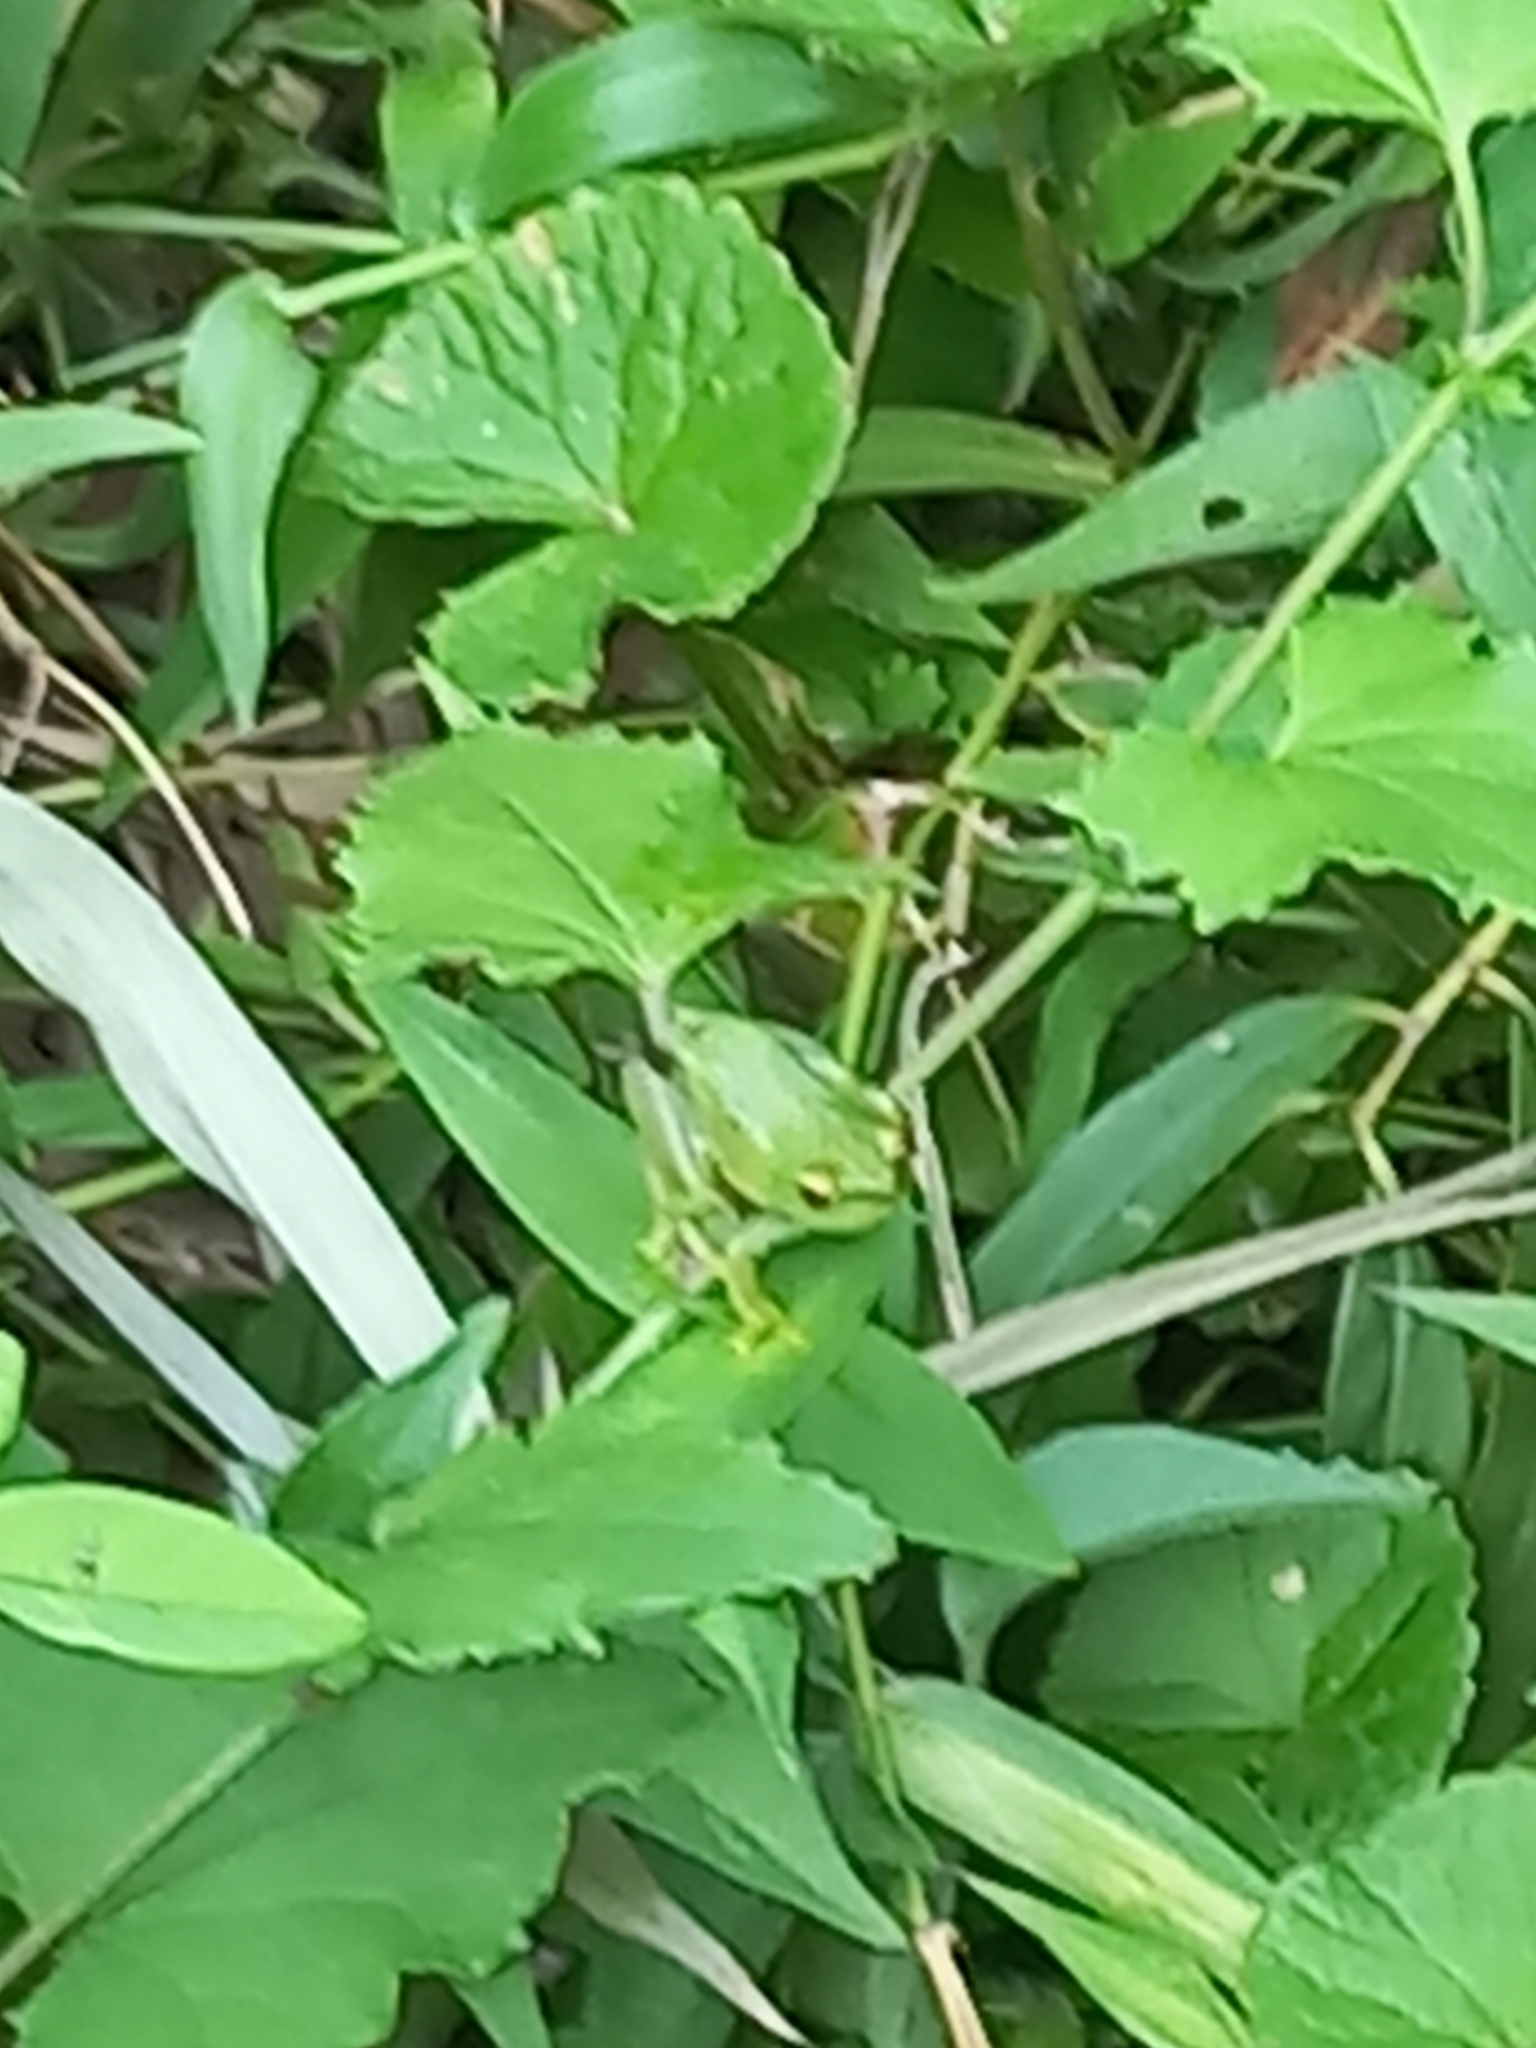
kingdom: Animalia
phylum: Chordata
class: Amphibia
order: Anura
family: Hyperoliidae
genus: Hyperolius
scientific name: Hyperolius pusillus
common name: Water lily reed frog
